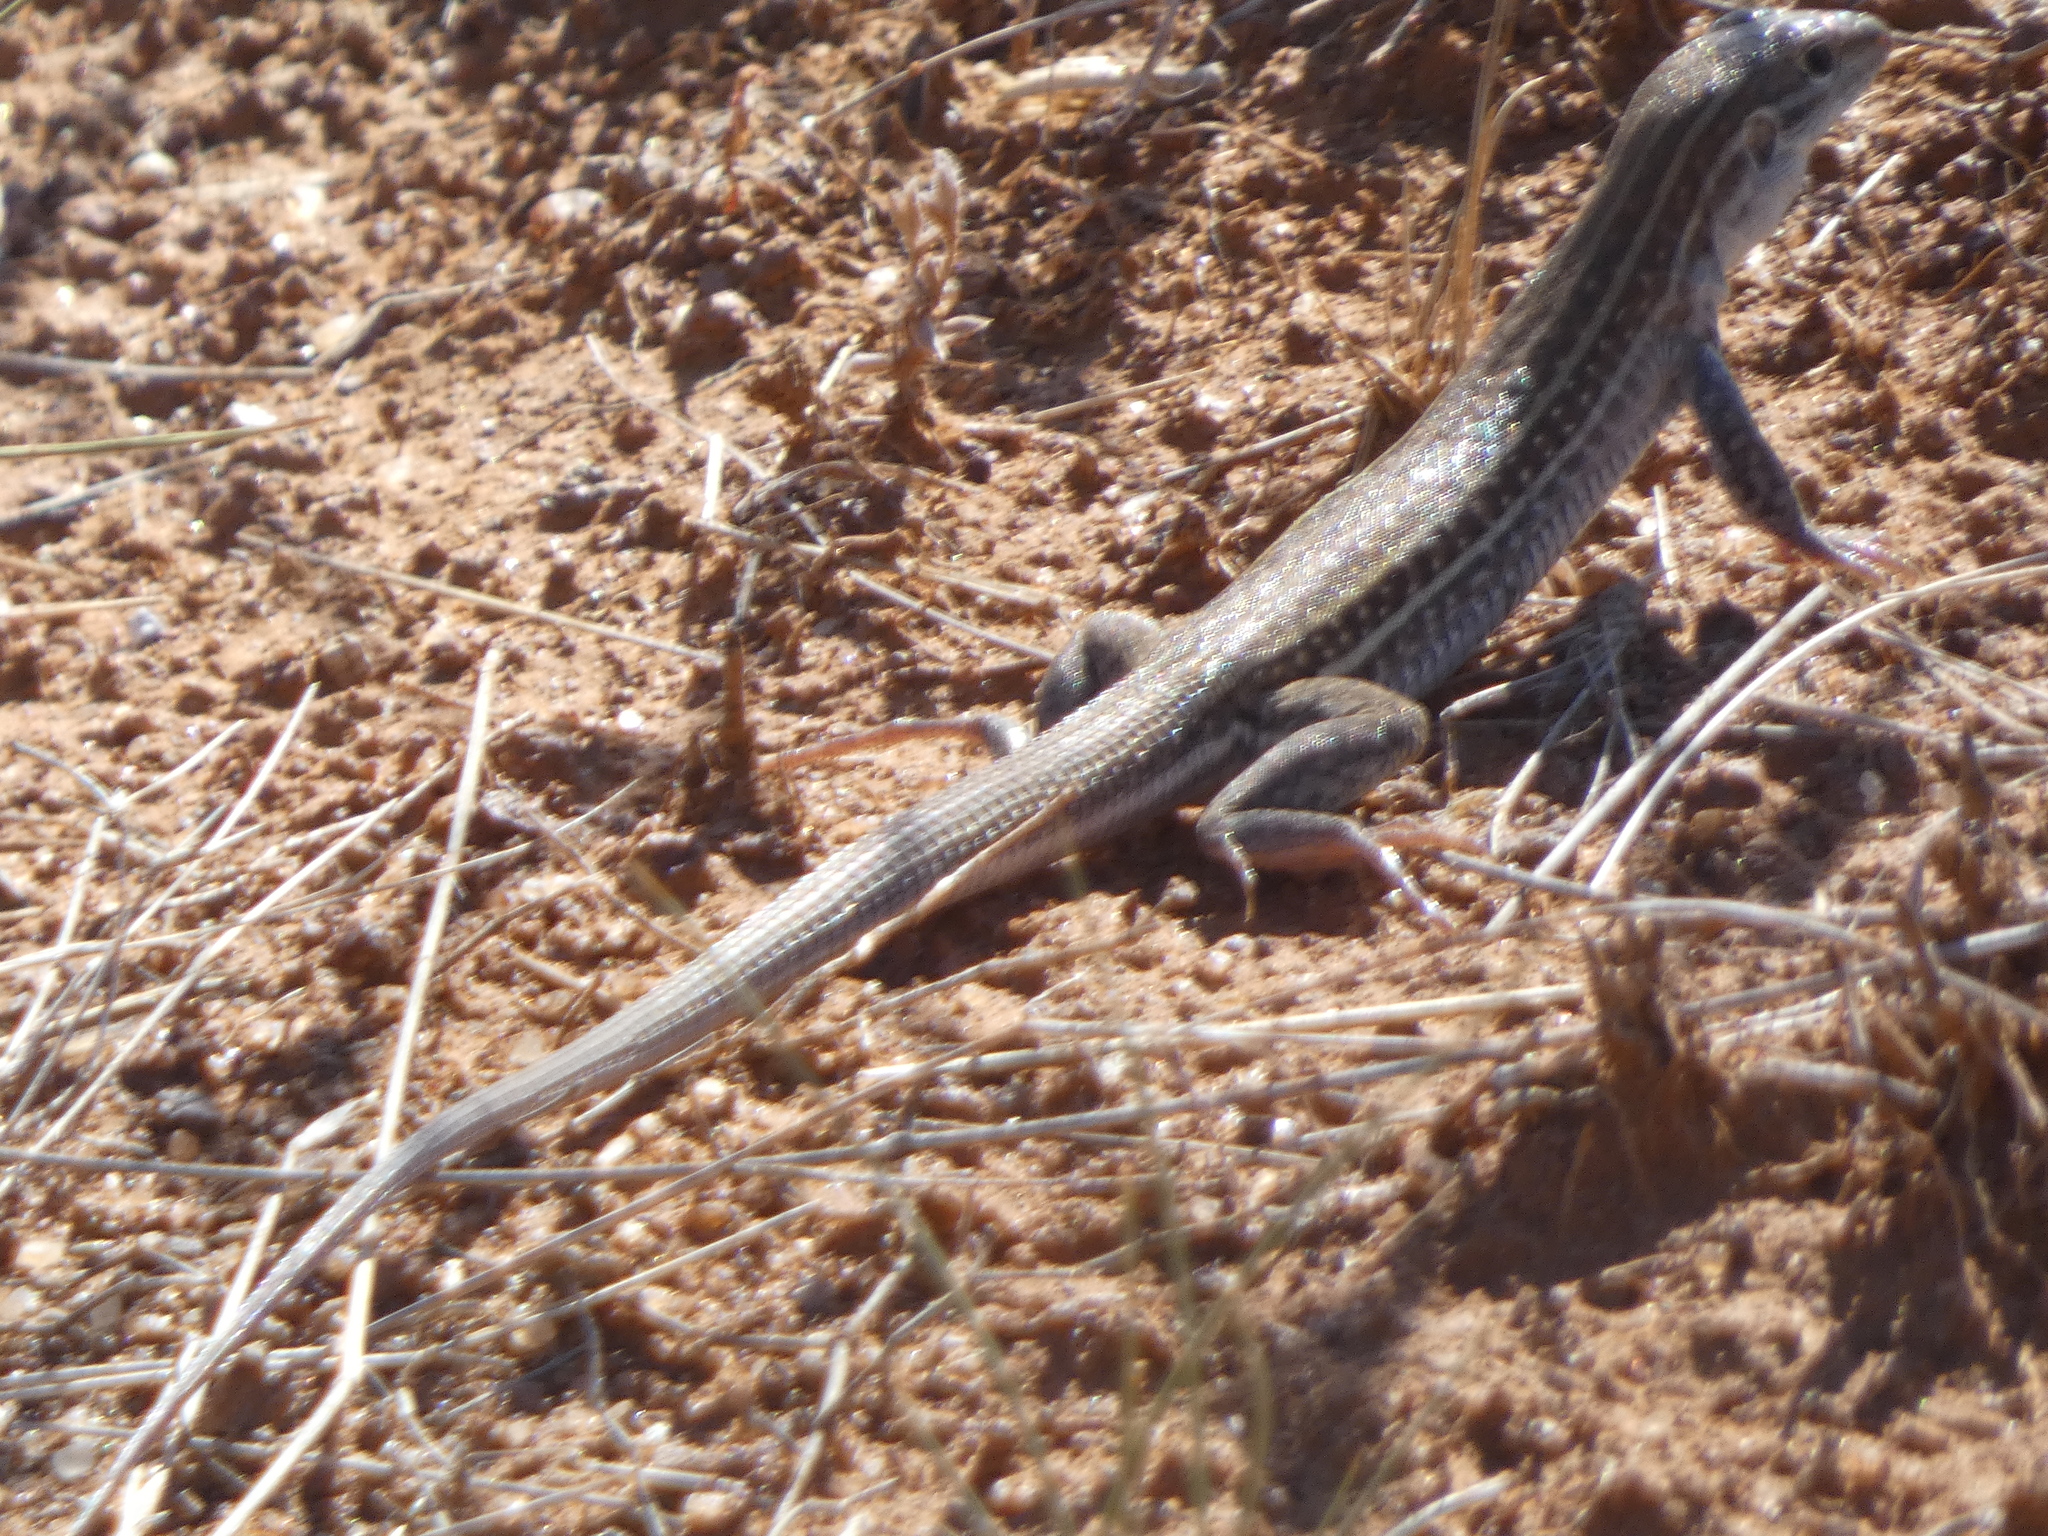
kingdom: Animalia
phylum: Chordata
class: Squamata
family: Teiidae
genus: Aspidoscelis
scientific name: Aspidoscelis exsanguis
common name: Chihuahuan spotted whiptail
